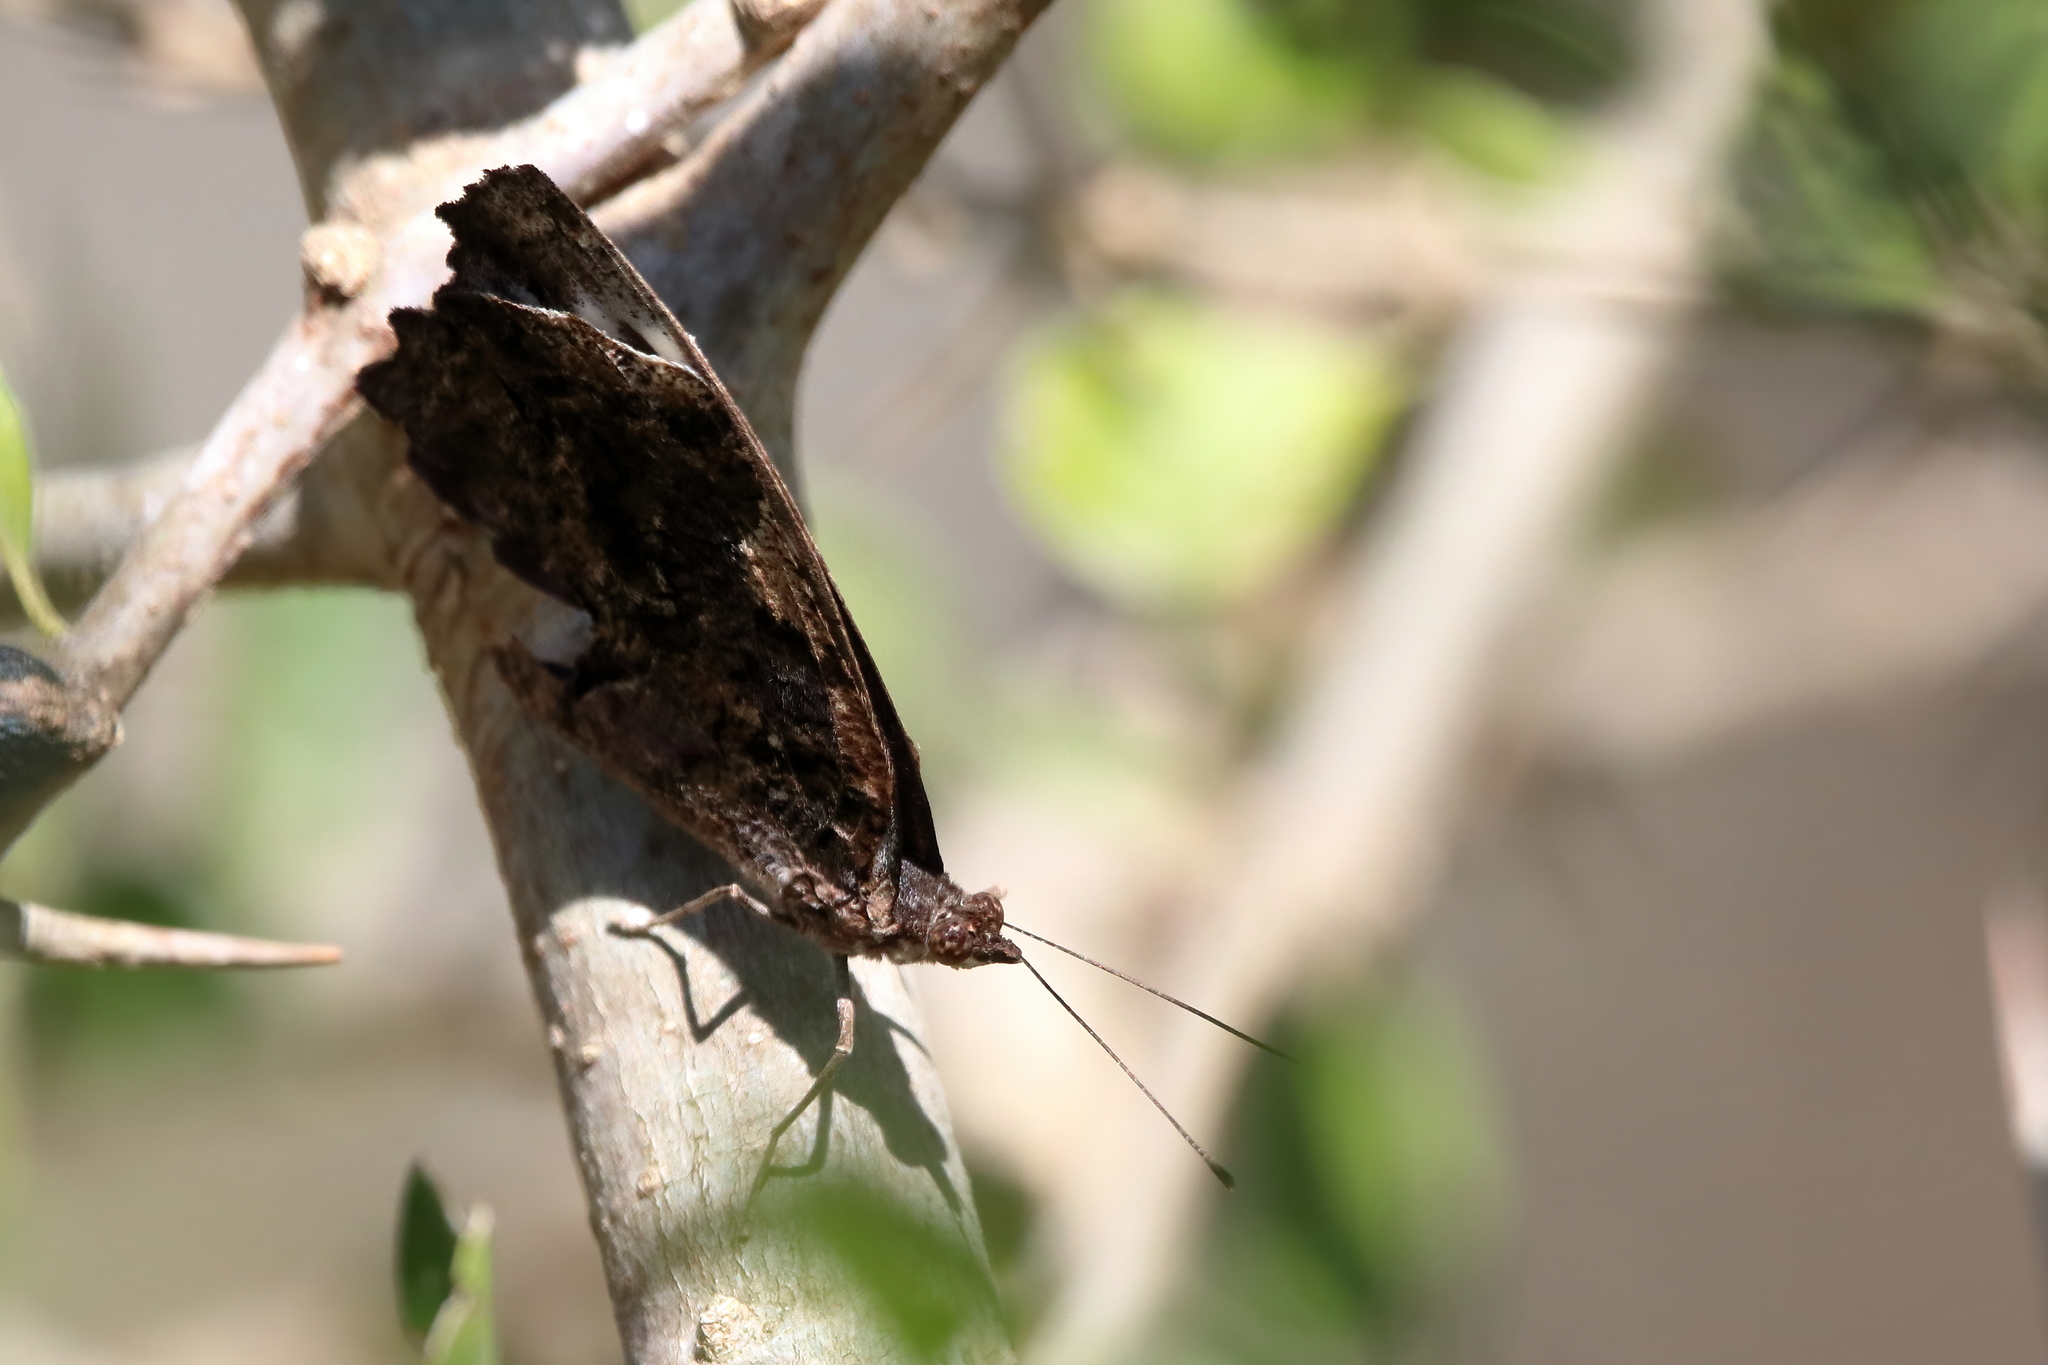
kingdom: Animalia
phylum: Arthropoda
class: Insecta
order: Lepidoptera
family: Nymphalidae
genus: Myscelia
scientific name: Myscelia ethusa
